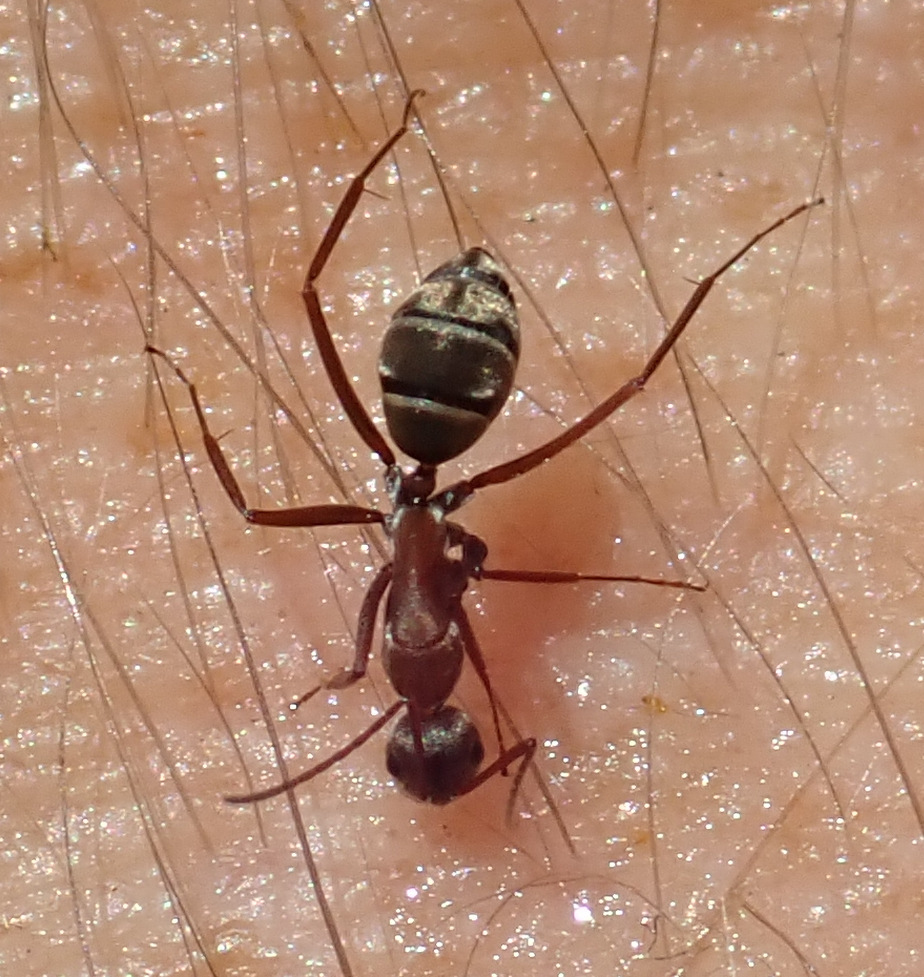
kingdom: Animalia
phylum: Arthropoda
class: Insecta
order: Hymenoptera
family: Formicidae
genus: Camponotus
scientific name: Camponotus vestitus
